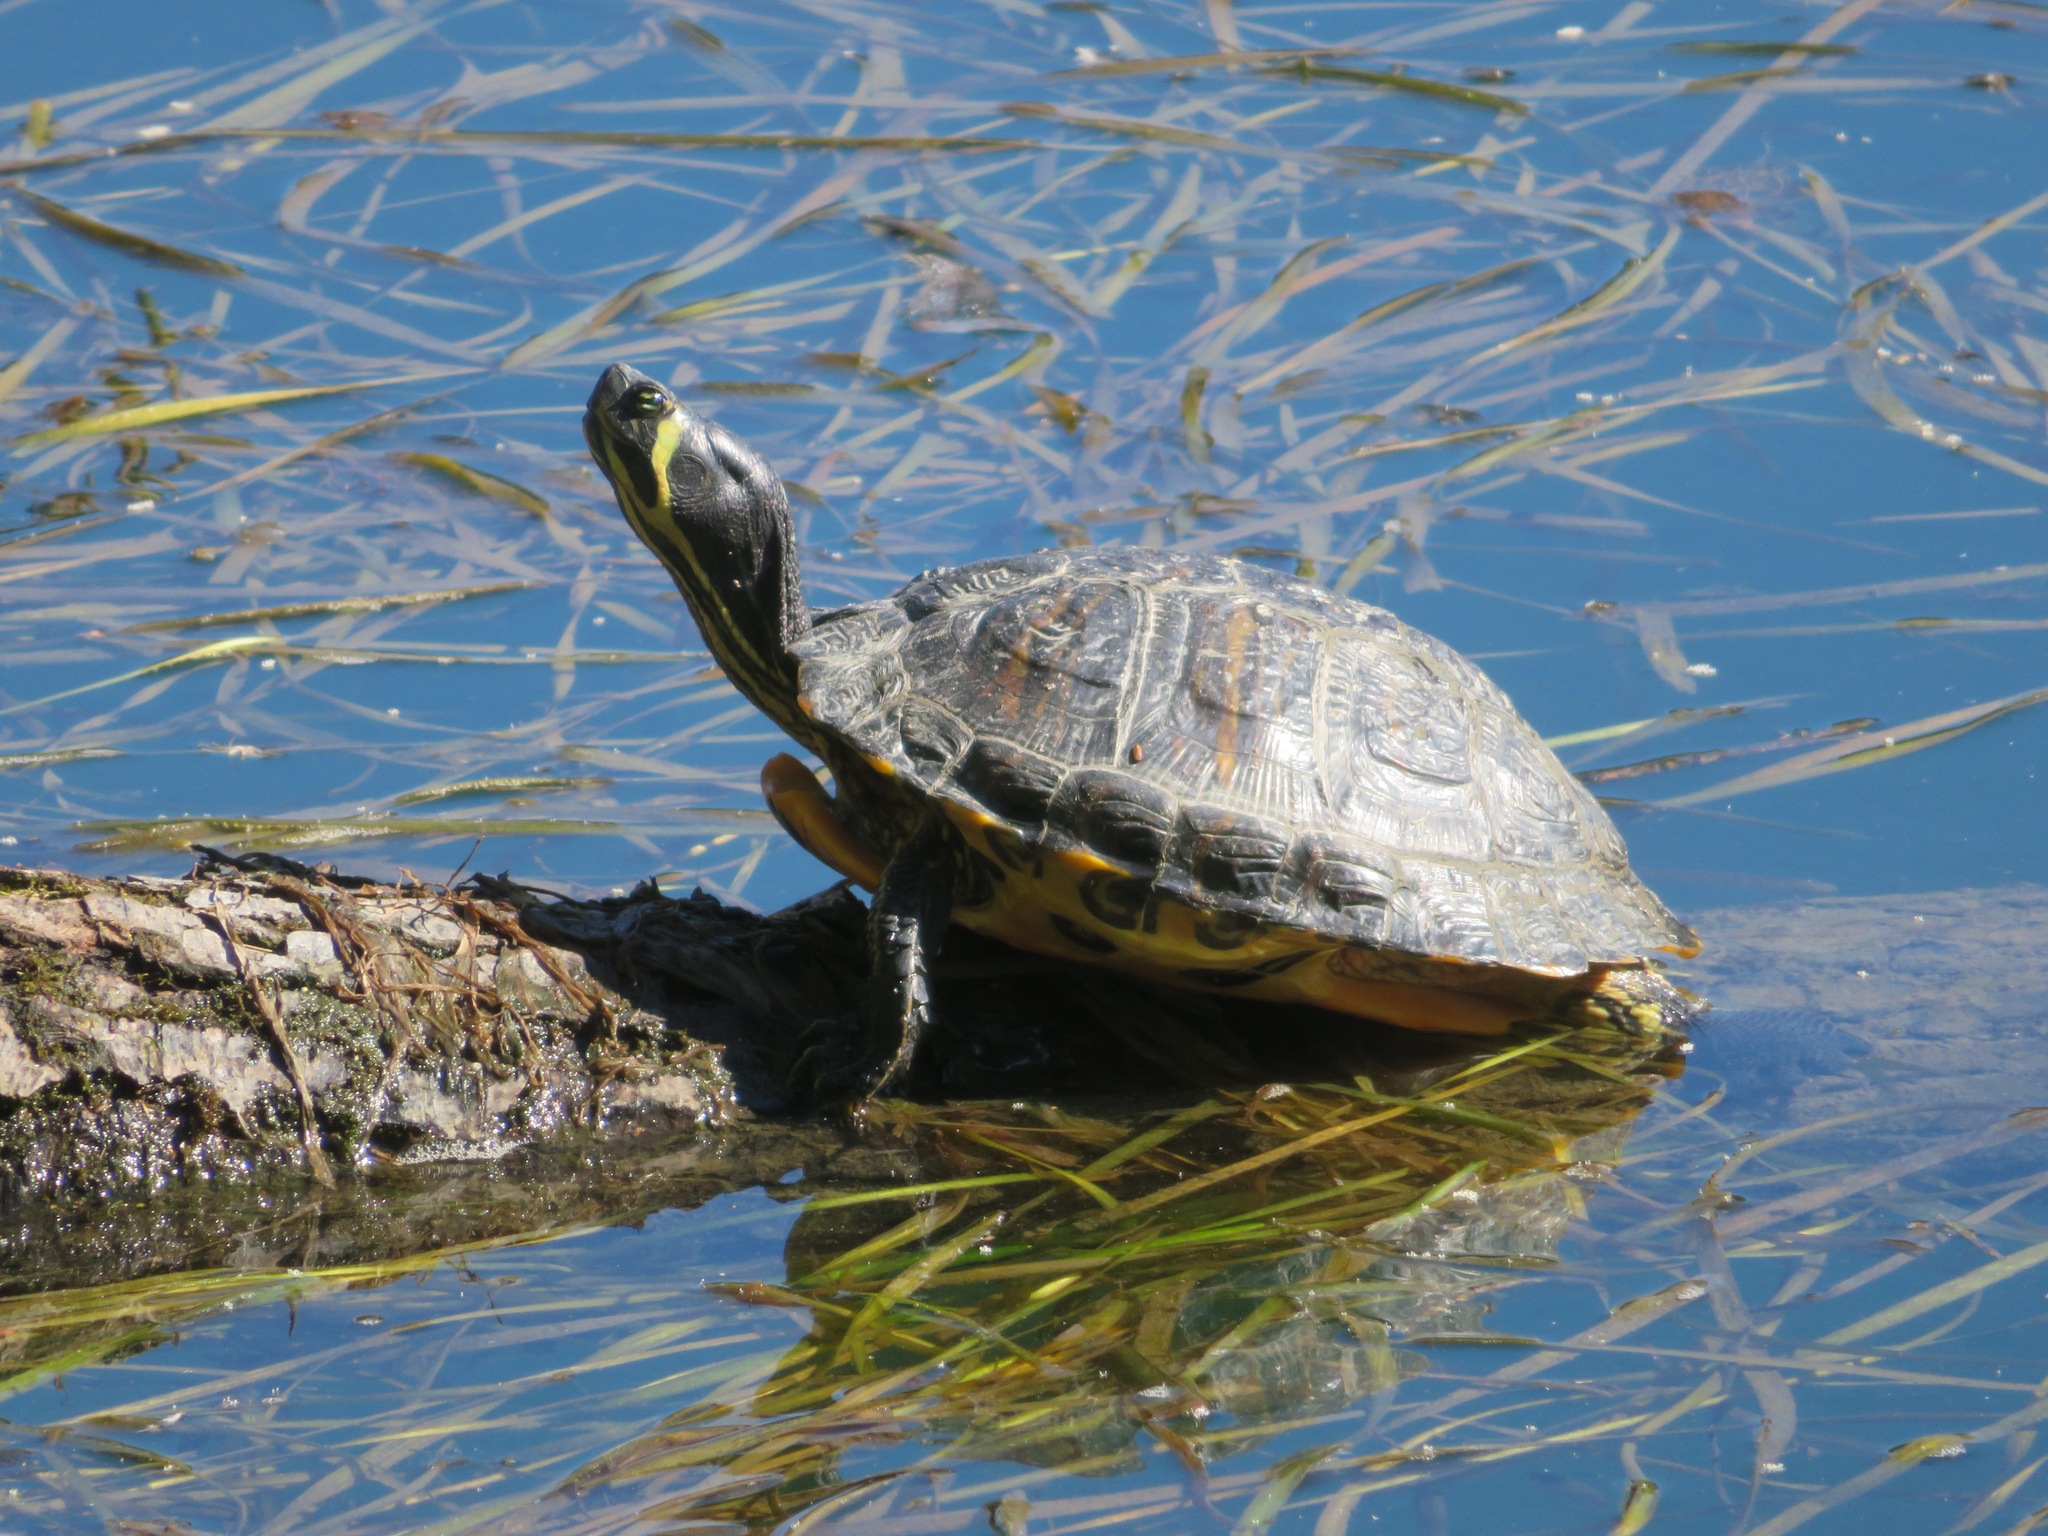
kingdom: Animalia
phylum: Chordata
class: Testudines
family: Emydidae
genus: Trachemys
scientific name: Trachemys scripta
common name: Slider
